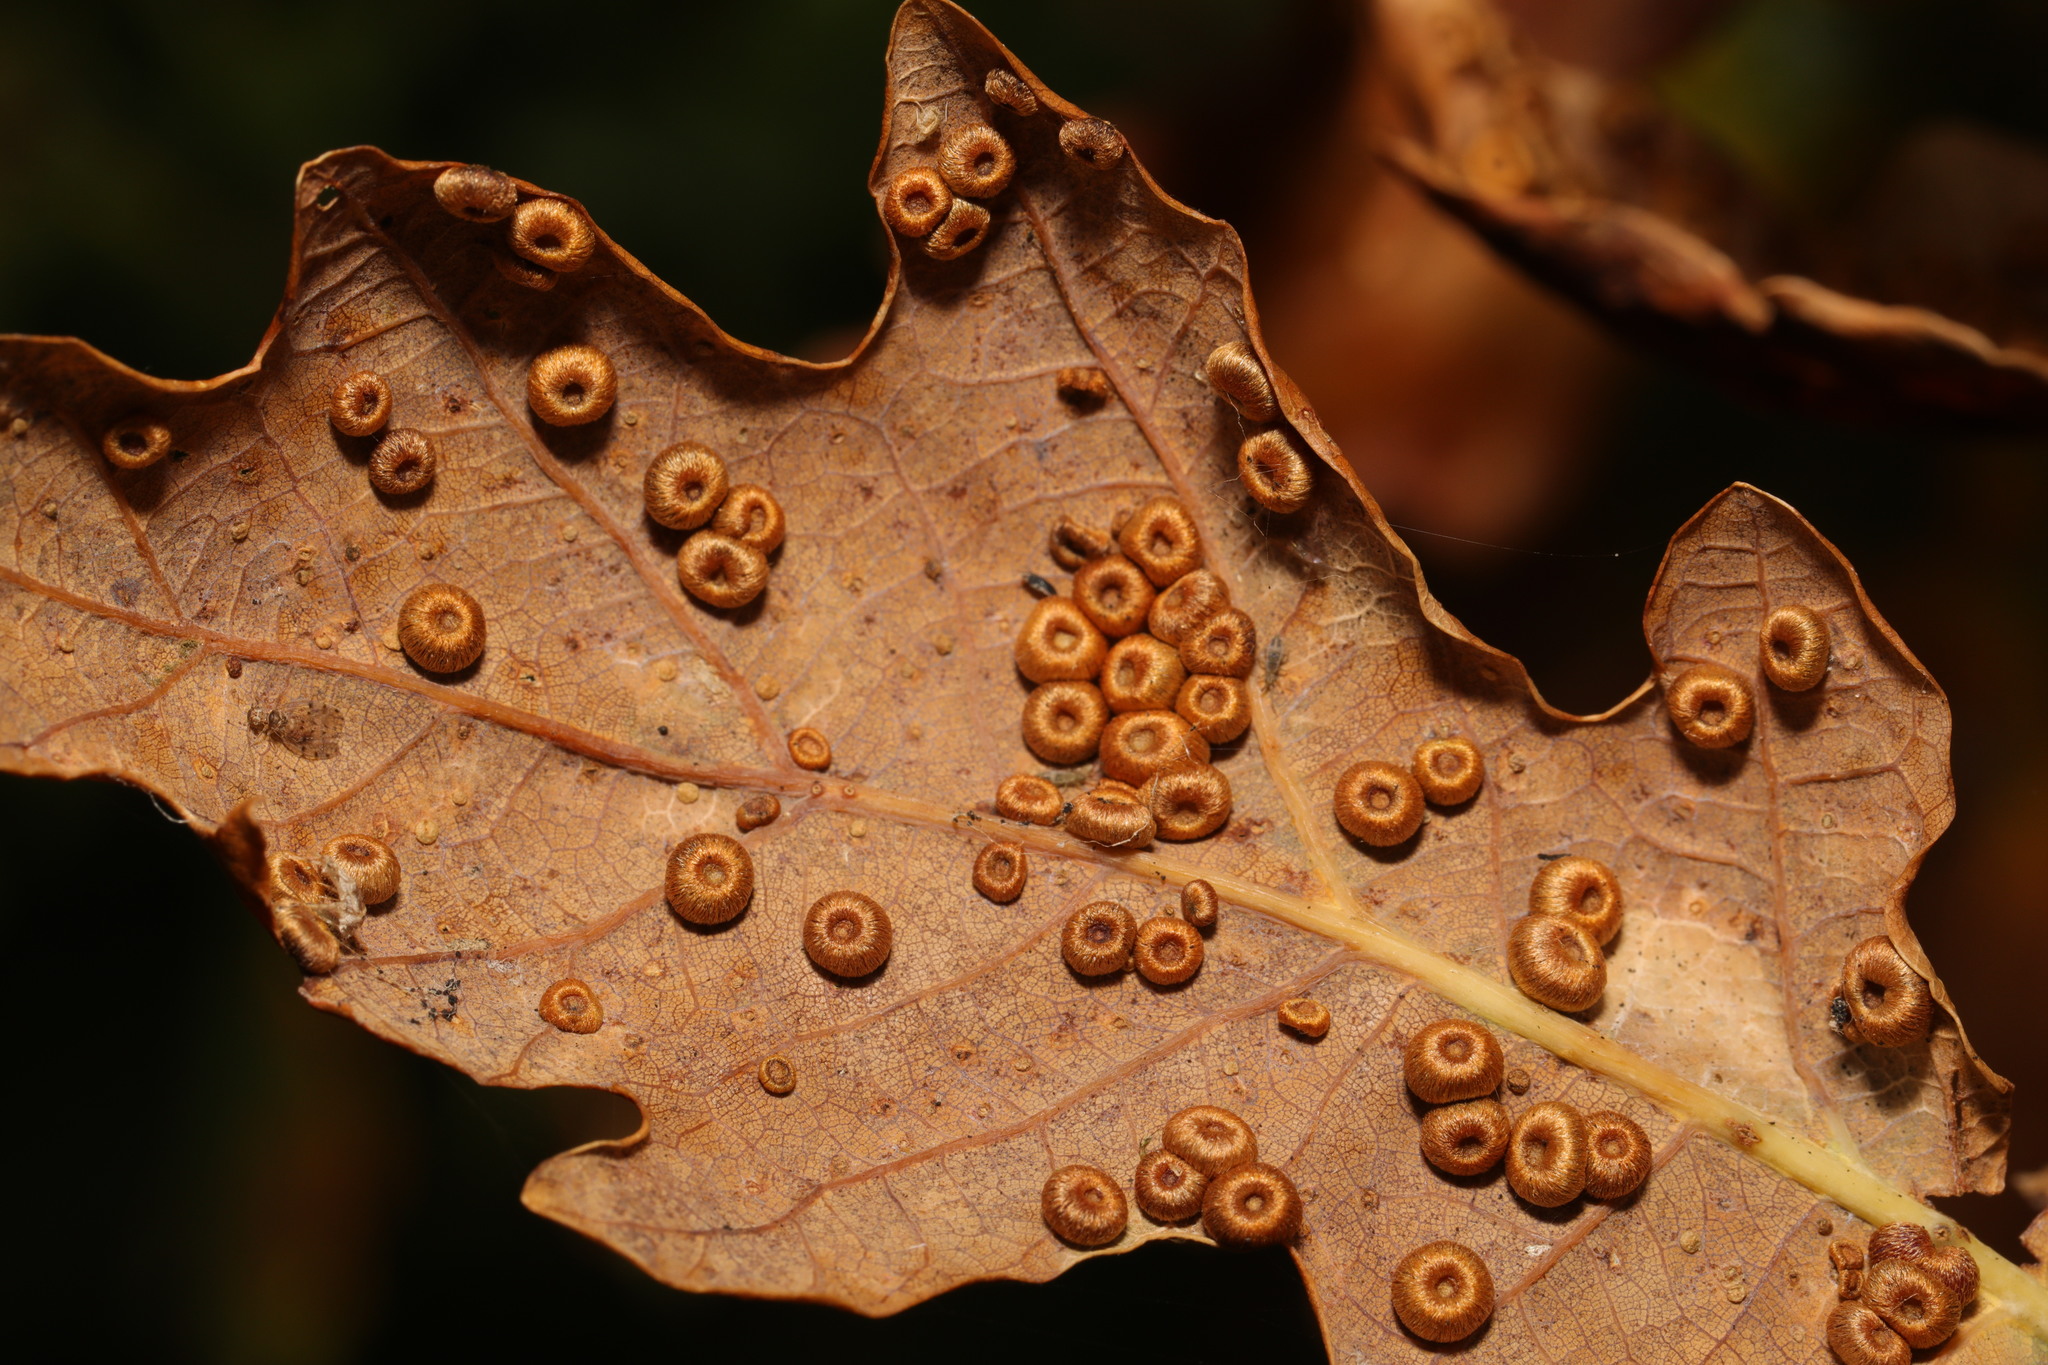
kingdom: Animalia
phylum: Arthropoda
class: Insecta
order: Hymenoptera
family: Cynipidae
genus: Neuroterus
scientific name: Neuroterus numismalis
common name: Silk-button spangle gall
